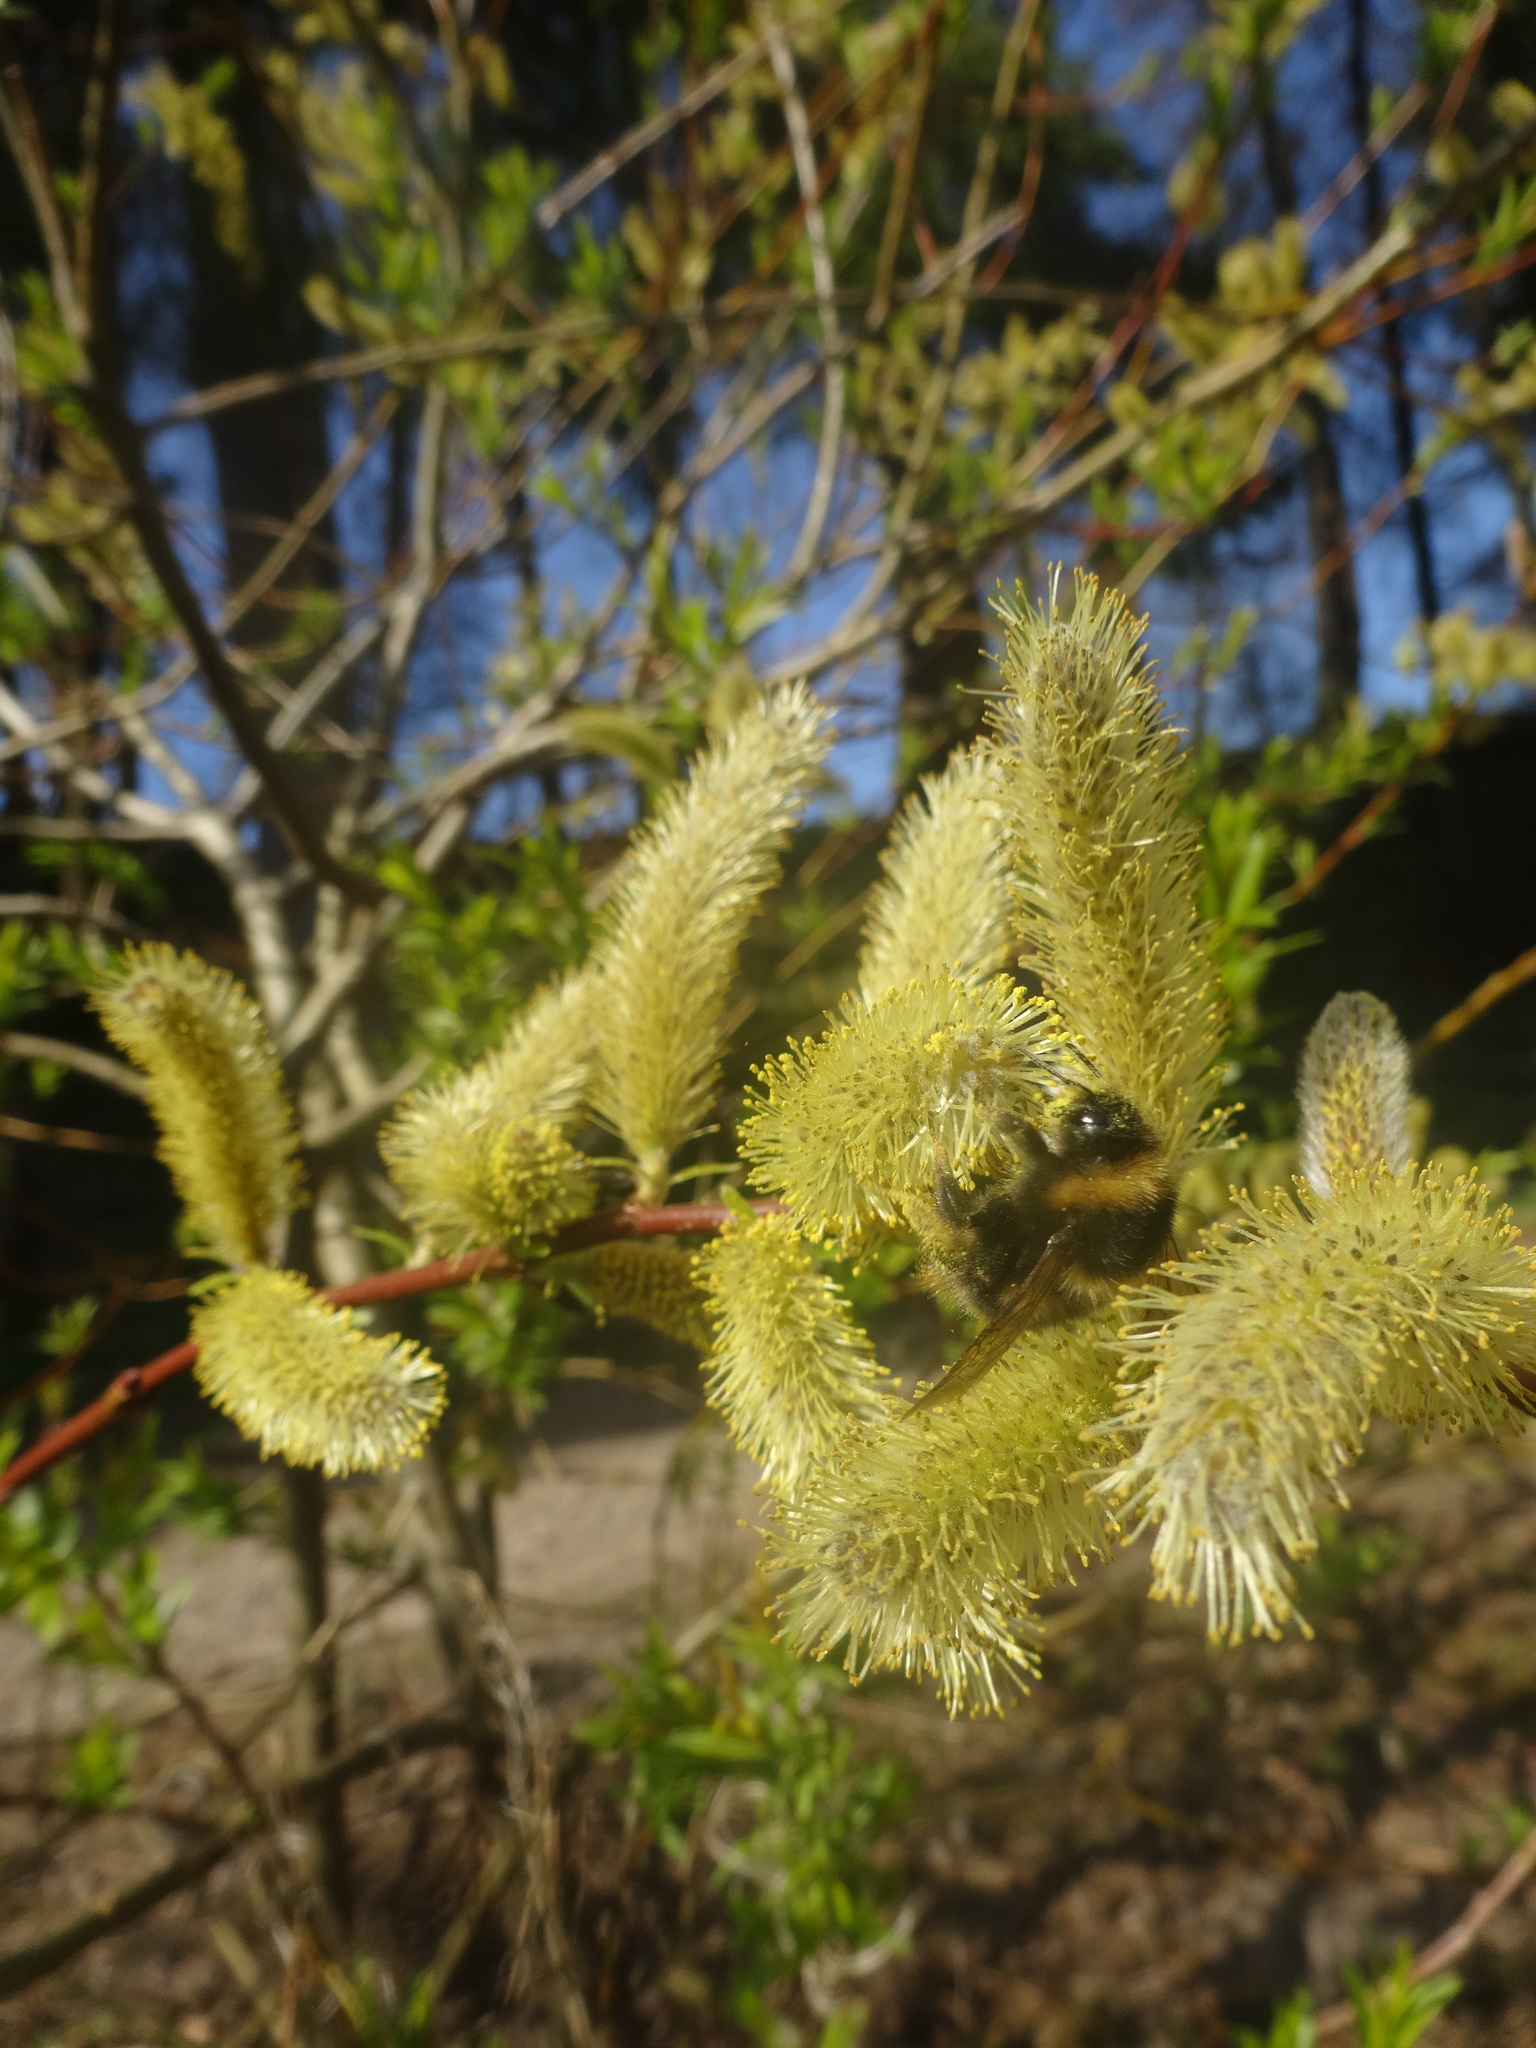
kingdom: Animalia
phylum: Arthropoda
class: Insecta
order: Hymenoptera
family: Apidae
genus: Bombus
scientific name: Bombus jonellus
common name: Heath humble-bee
